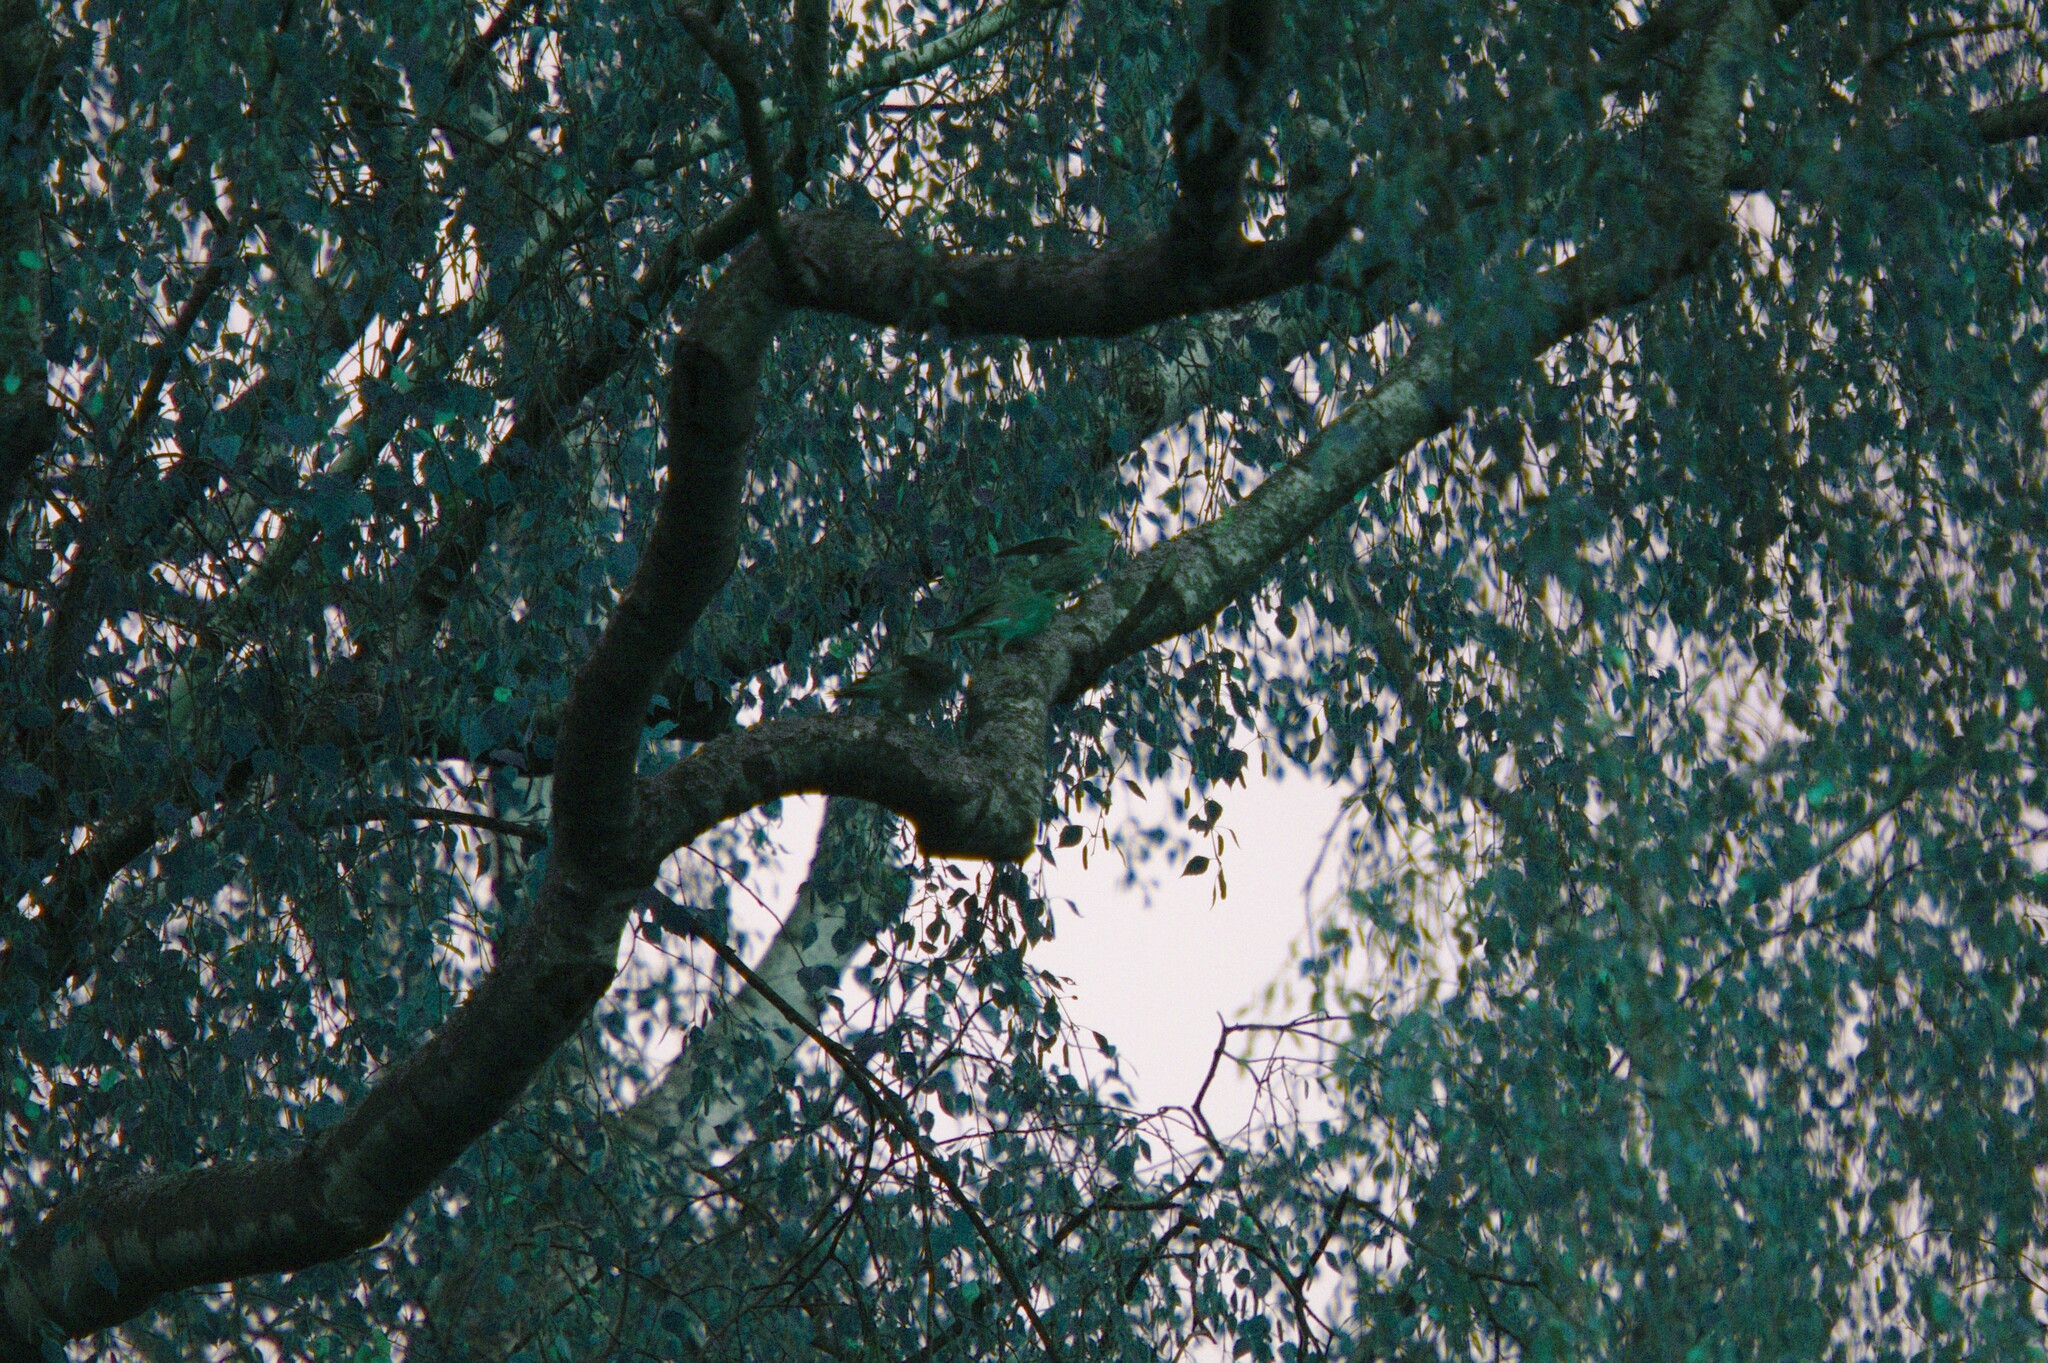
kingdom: Plantae
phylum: Tracheophyta
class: Liliopsida
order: Poales
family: Poaceae
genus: Chloris
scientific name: Chloris chloris
